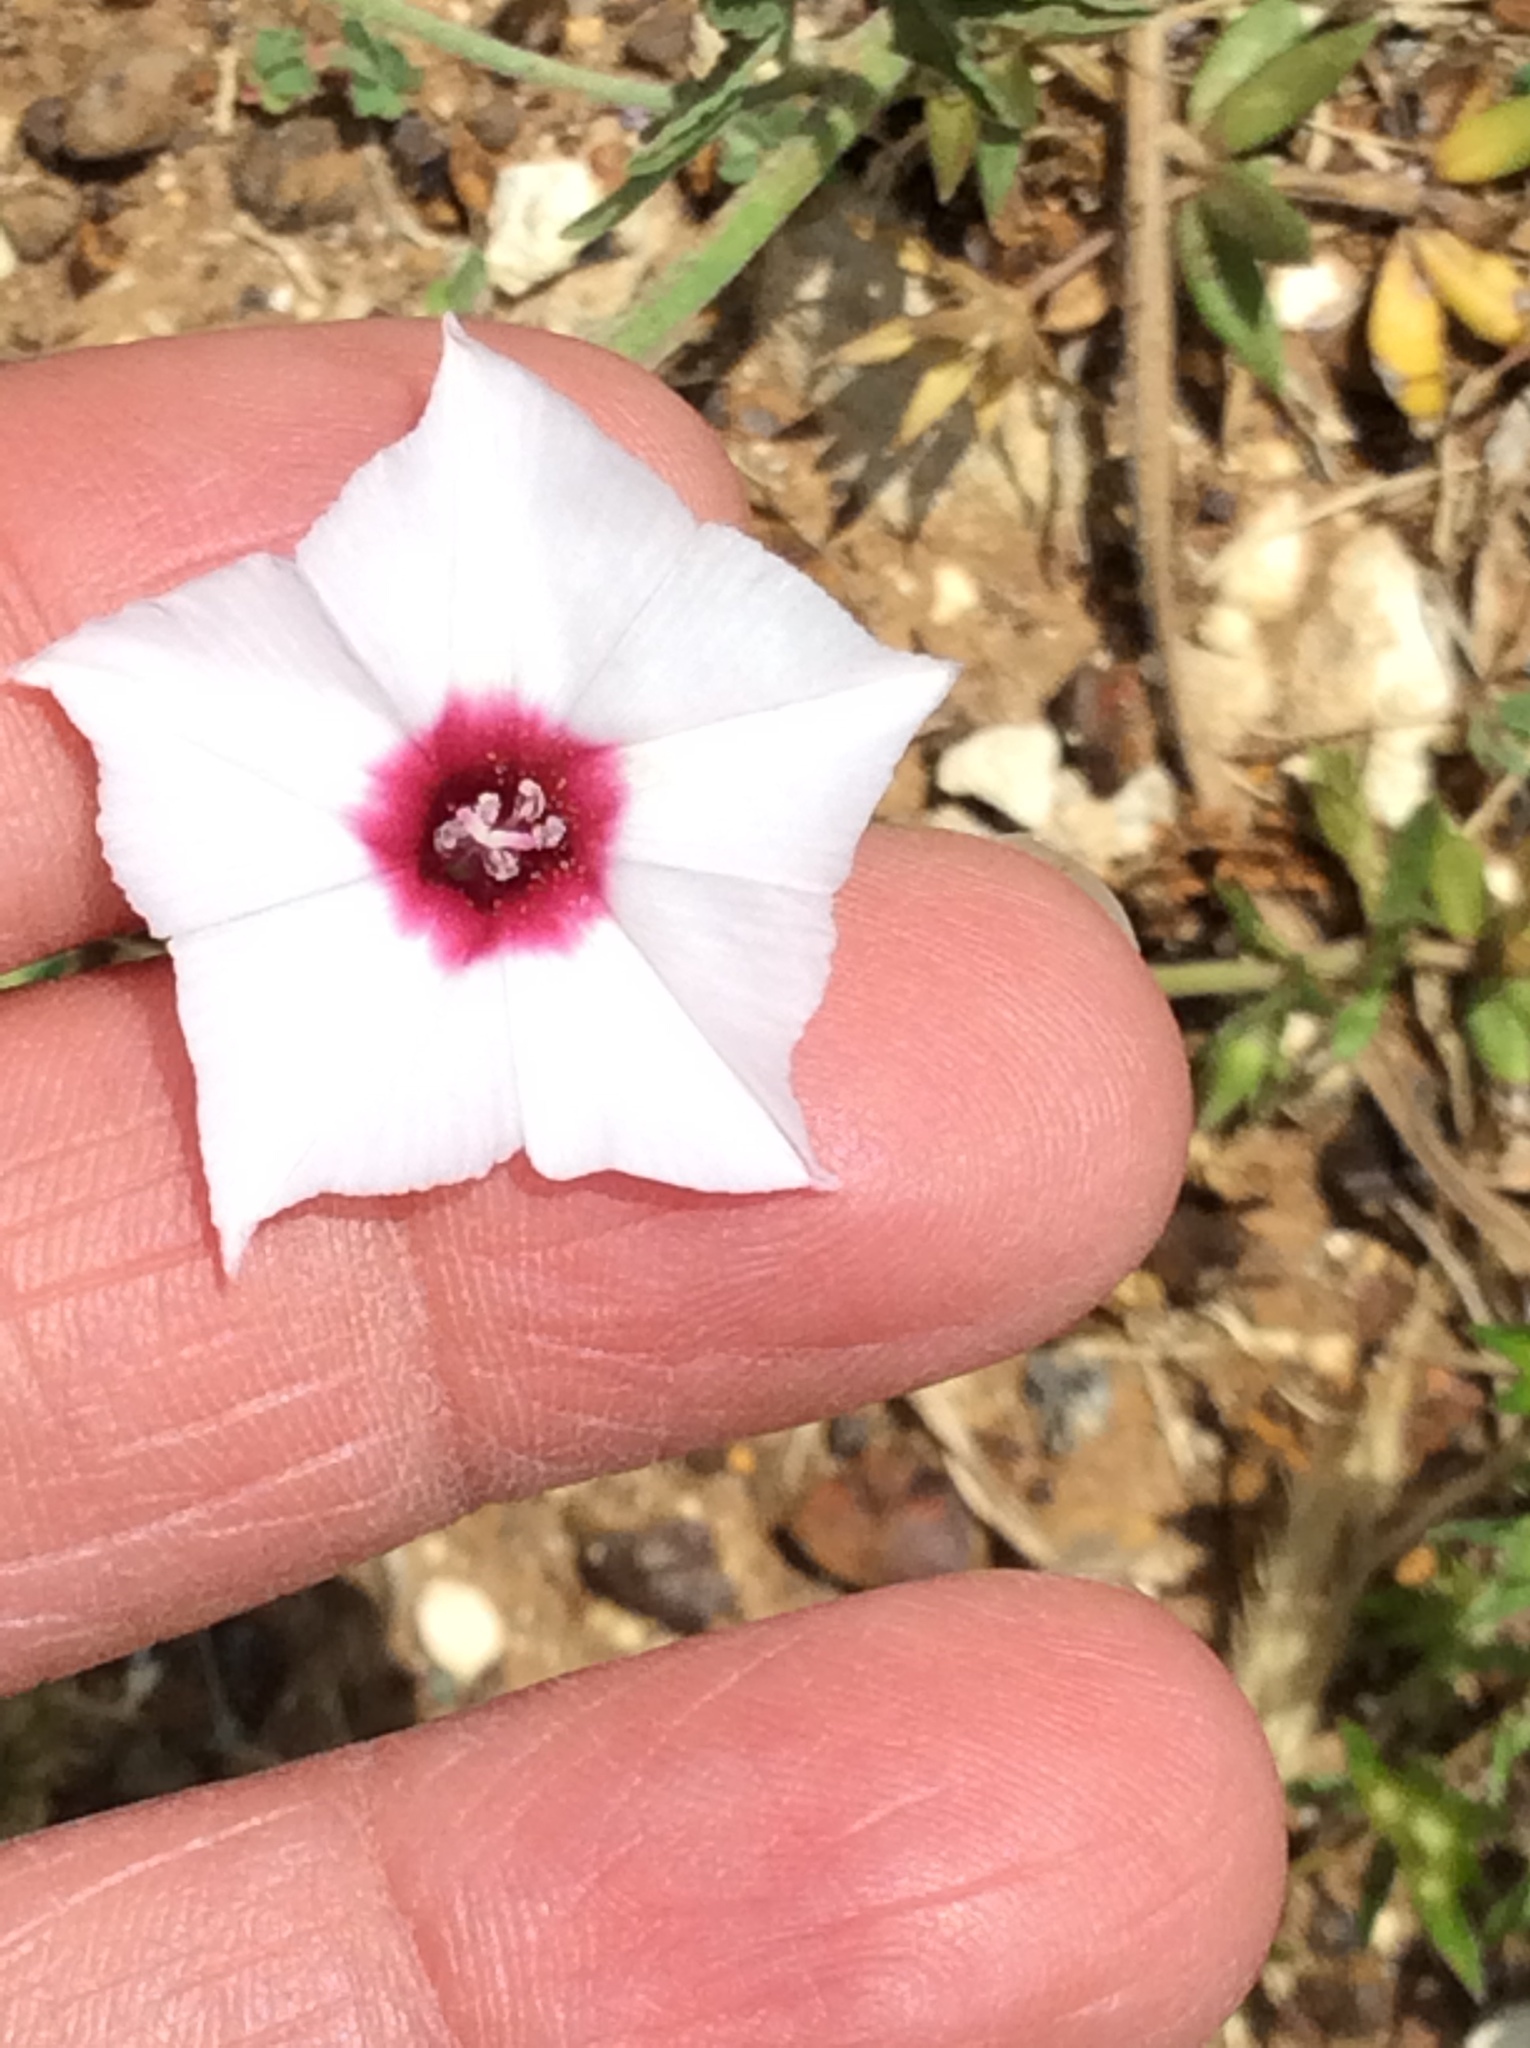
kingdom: Plantae
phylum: Tracheophyta
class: Magnoliopsida
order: Solanales
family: Convolvulaceae
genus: Convolvulus
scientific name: Convolvulus equitans
